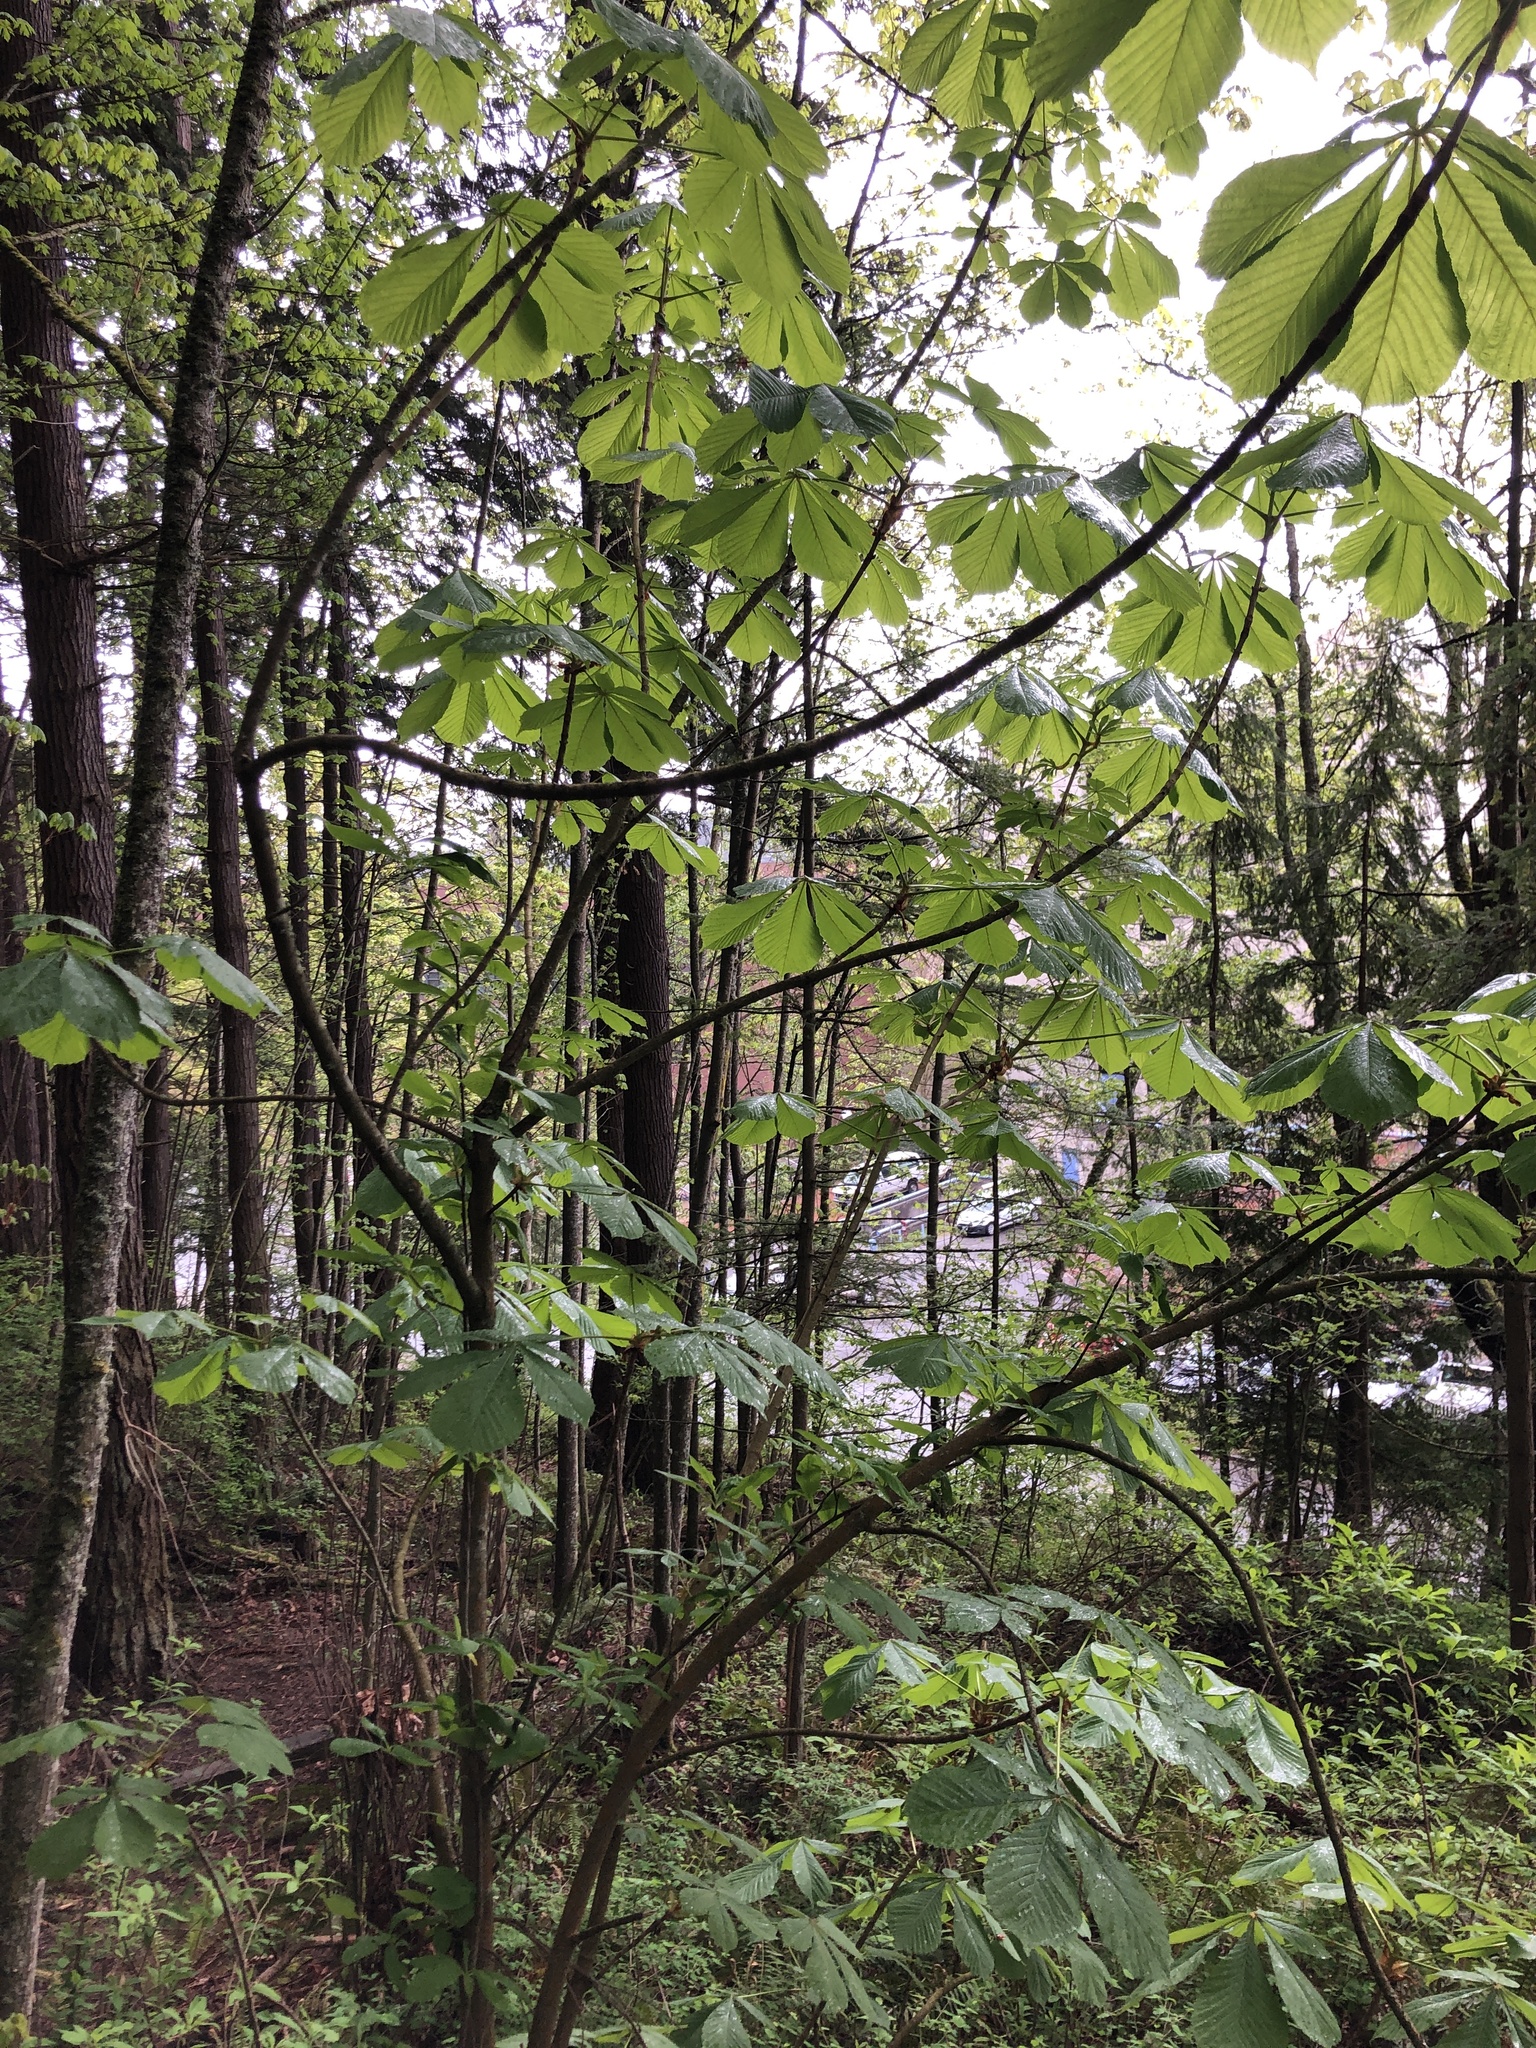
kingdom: Plantae
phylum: Tracheophyta
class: Magnoliopsida
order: Sapindales
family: Sapindaceae
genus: Aesculus
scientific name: Aesculus hippocastanum
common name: Horse-chestnut
